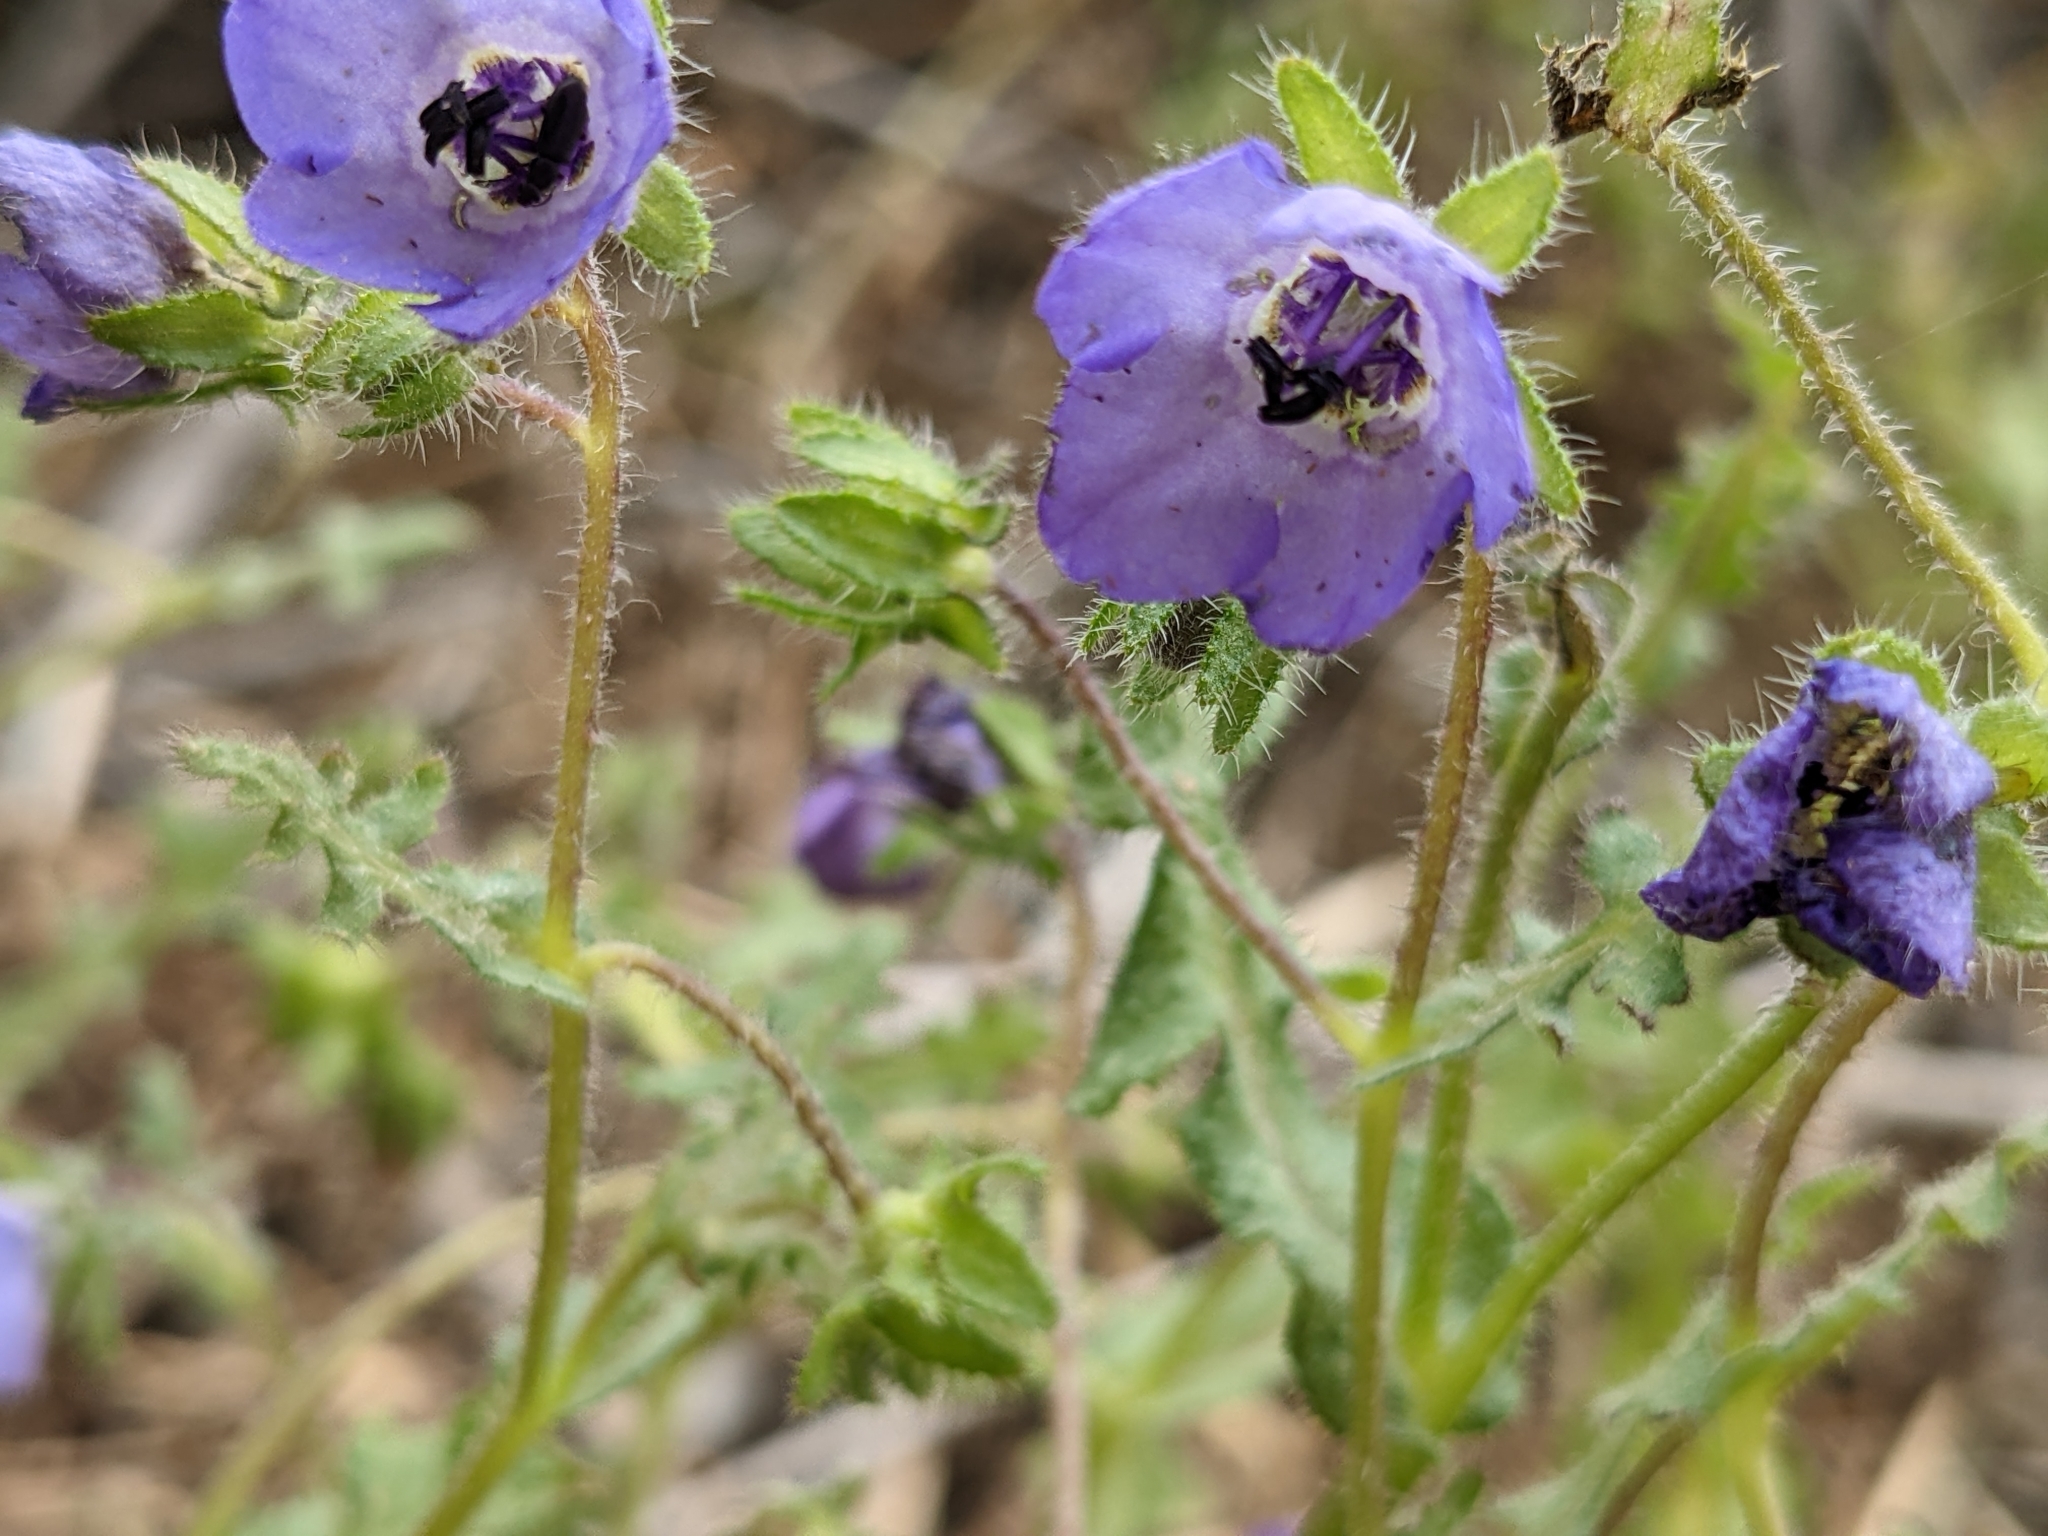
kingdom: Plantae
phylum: Tracheophyta
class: Magnoliopsida
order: Boraginales
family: Hydrophyllaceae
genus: Pholistoma
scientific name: Pholistoma auritum
